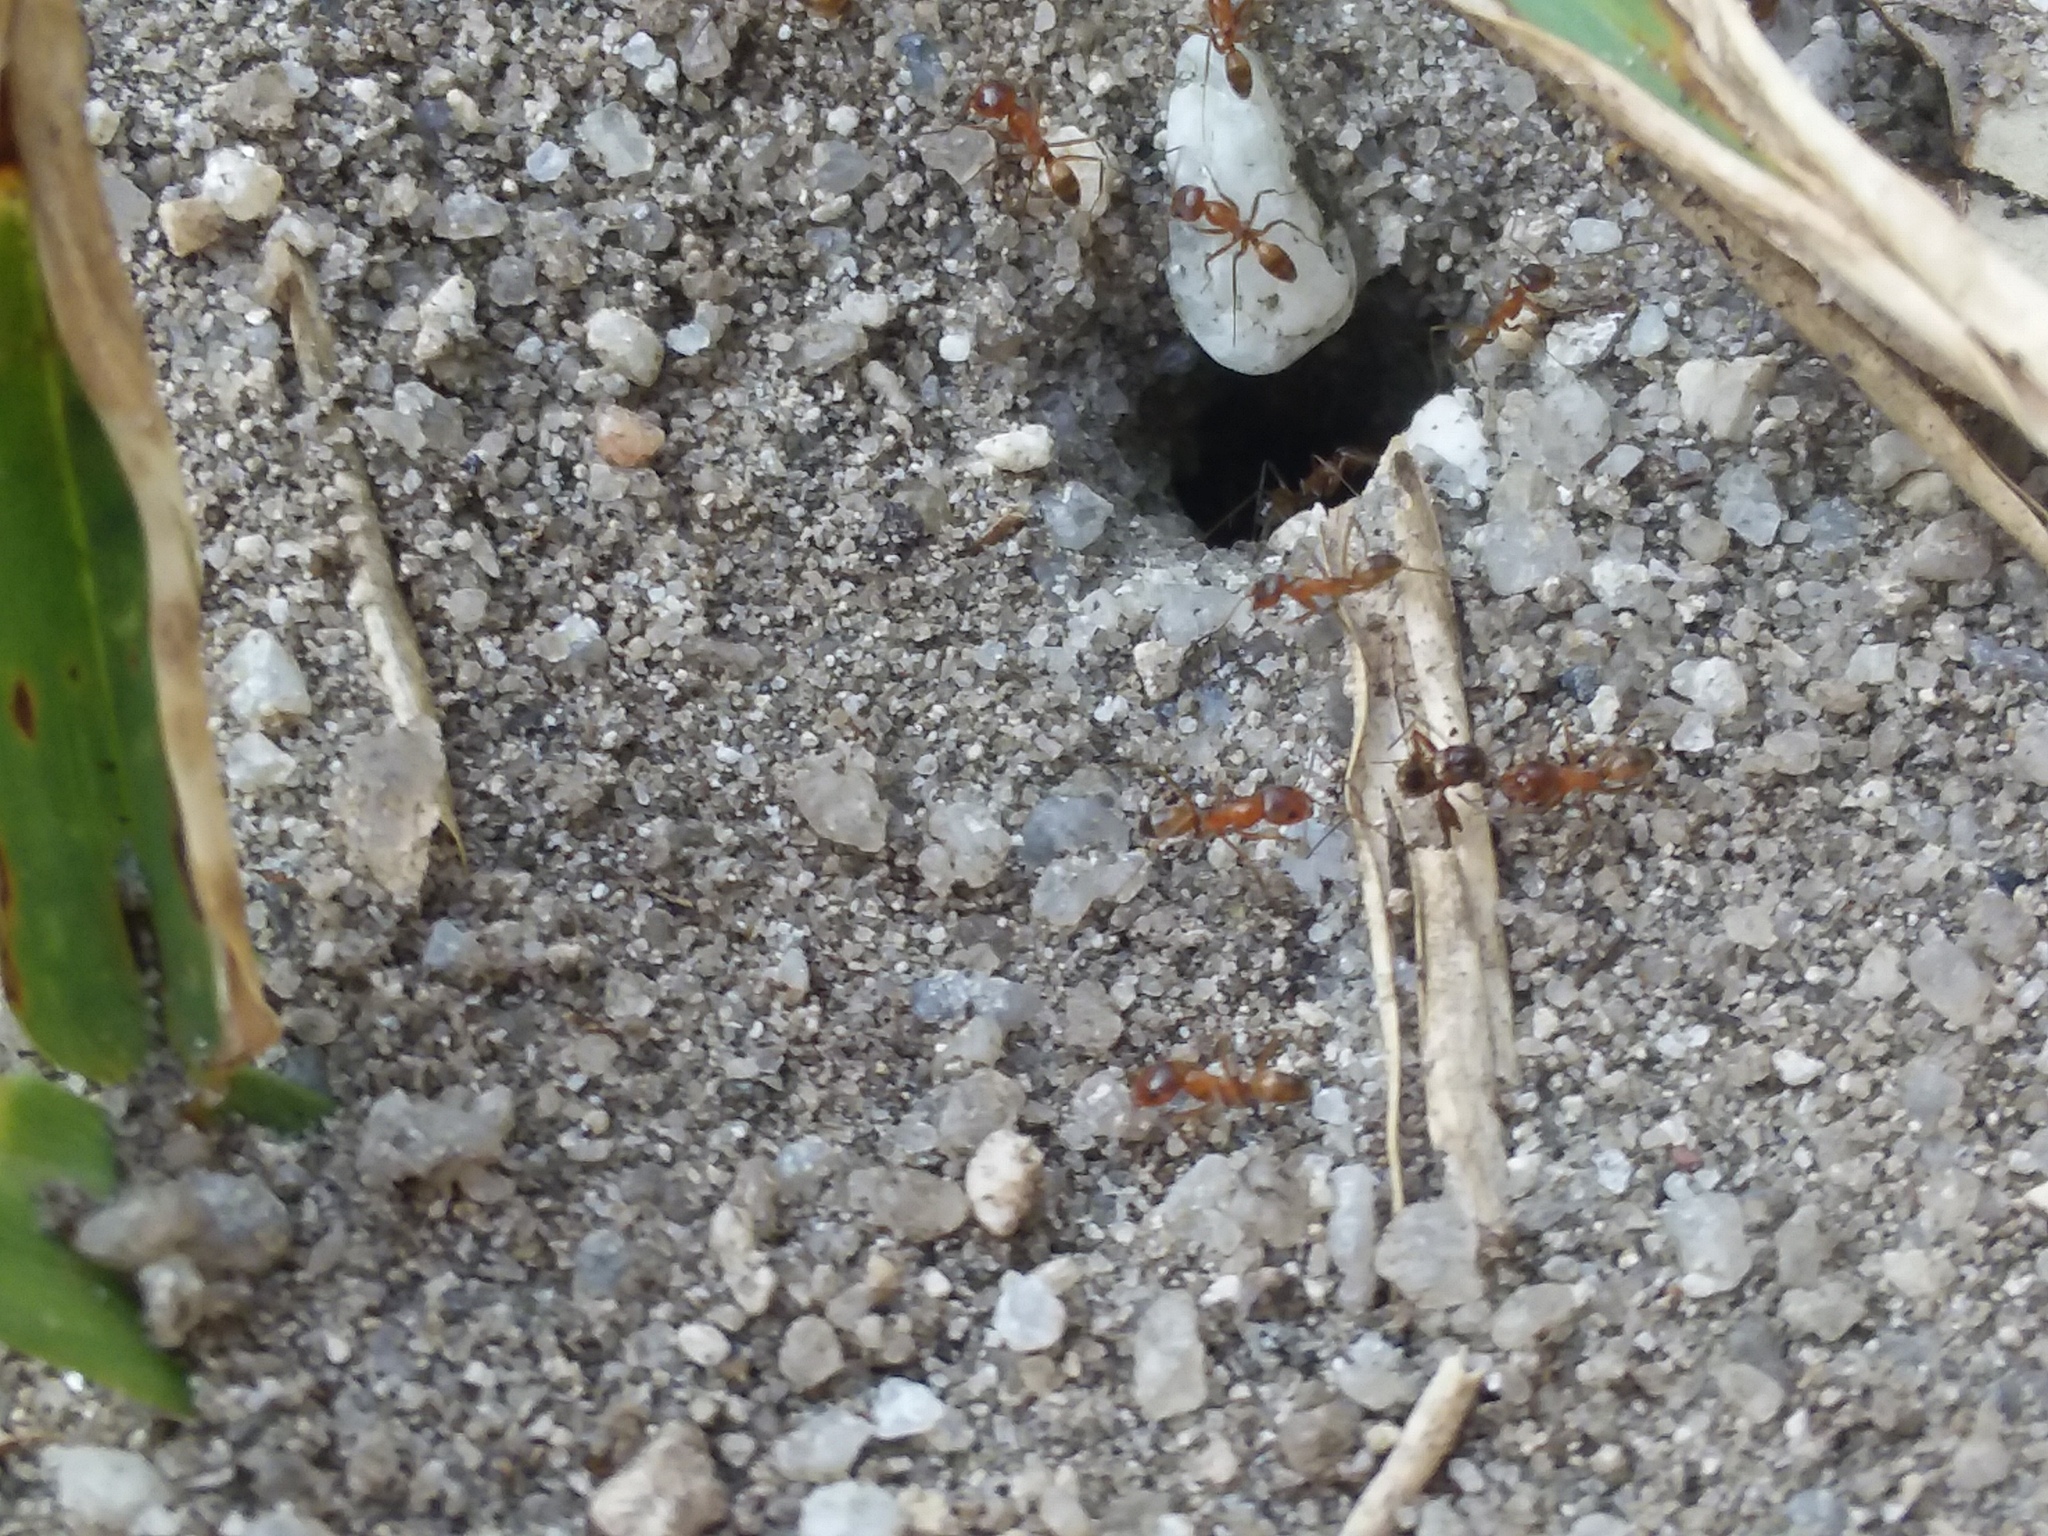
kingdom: Animalia
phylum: Arthropoda
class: Insecta
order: Hymenoptera
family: Formicidae
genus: Dorymyrmex
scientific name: Dorymyrmex bureni
